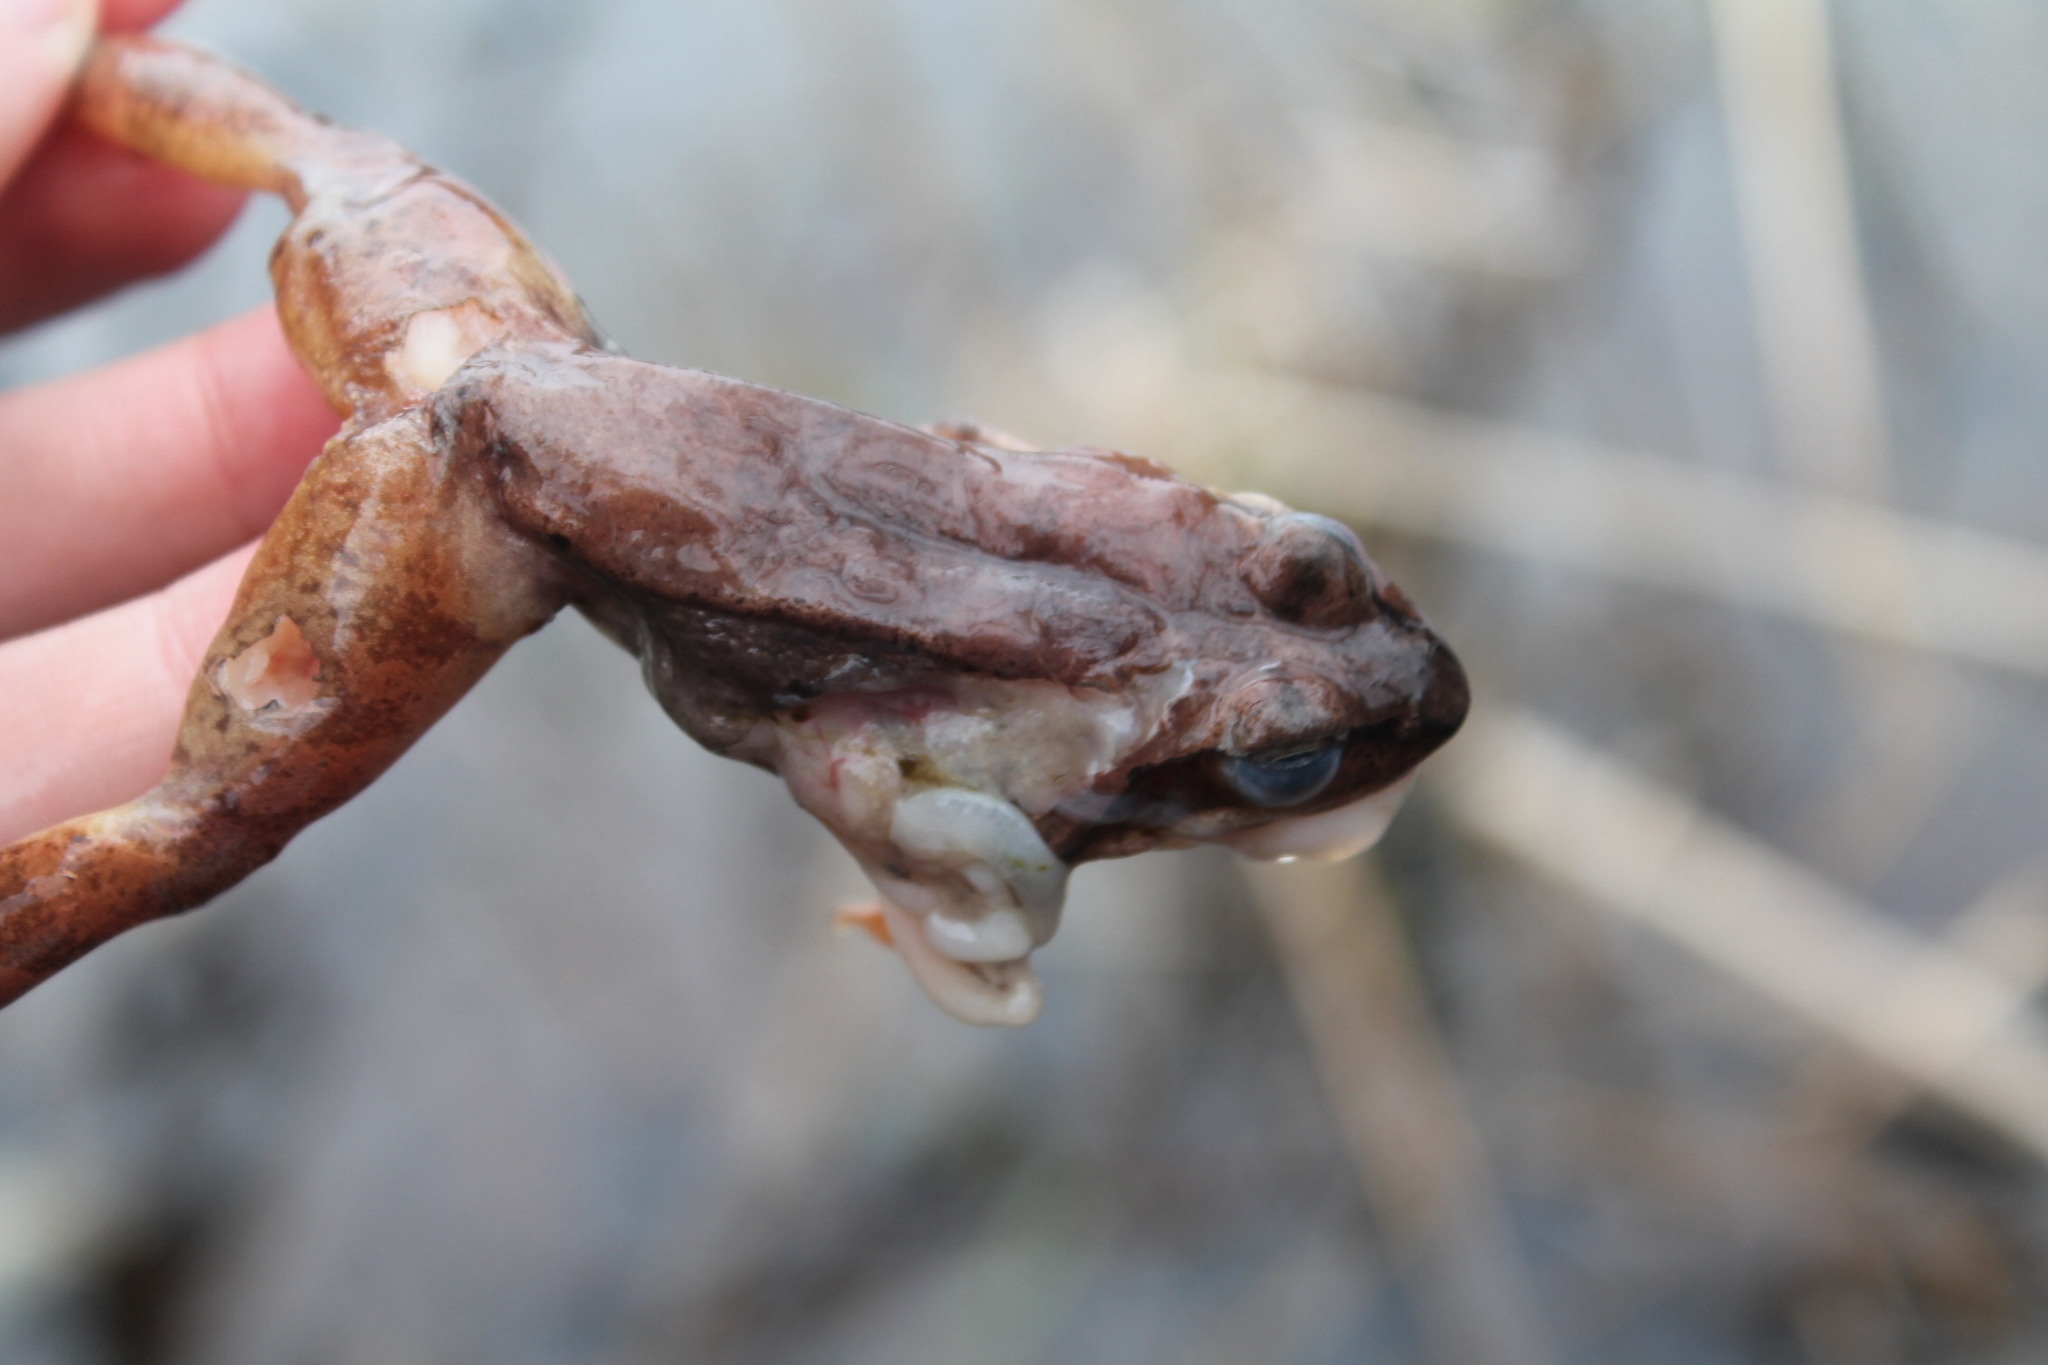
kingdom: Animalia
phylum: Chordata
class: Amphibia
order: Anura
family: Ranidae
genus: Lithobates
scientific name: Lithobates sylvaticus
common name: Wood frog
